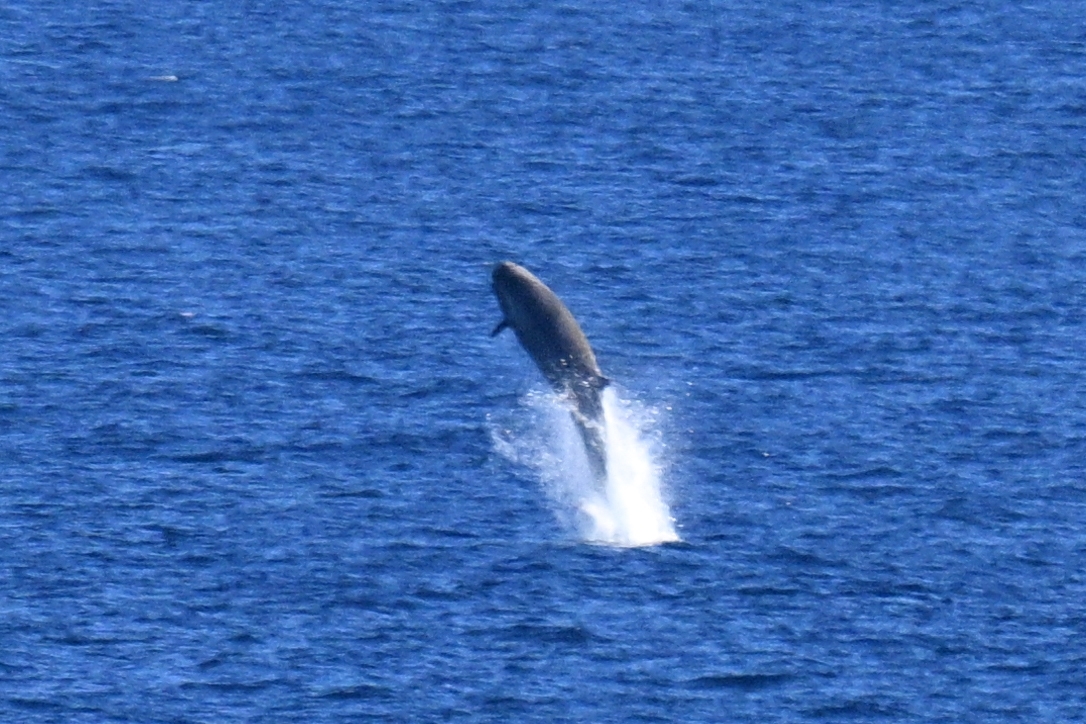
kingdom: Animalia
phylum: Chordata
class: Mammalia
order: Cetacea
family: Hyperoodontidae
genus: Hyperoodon
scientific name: Hyperoodon ampullatus
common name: Northern bottlenose whale
